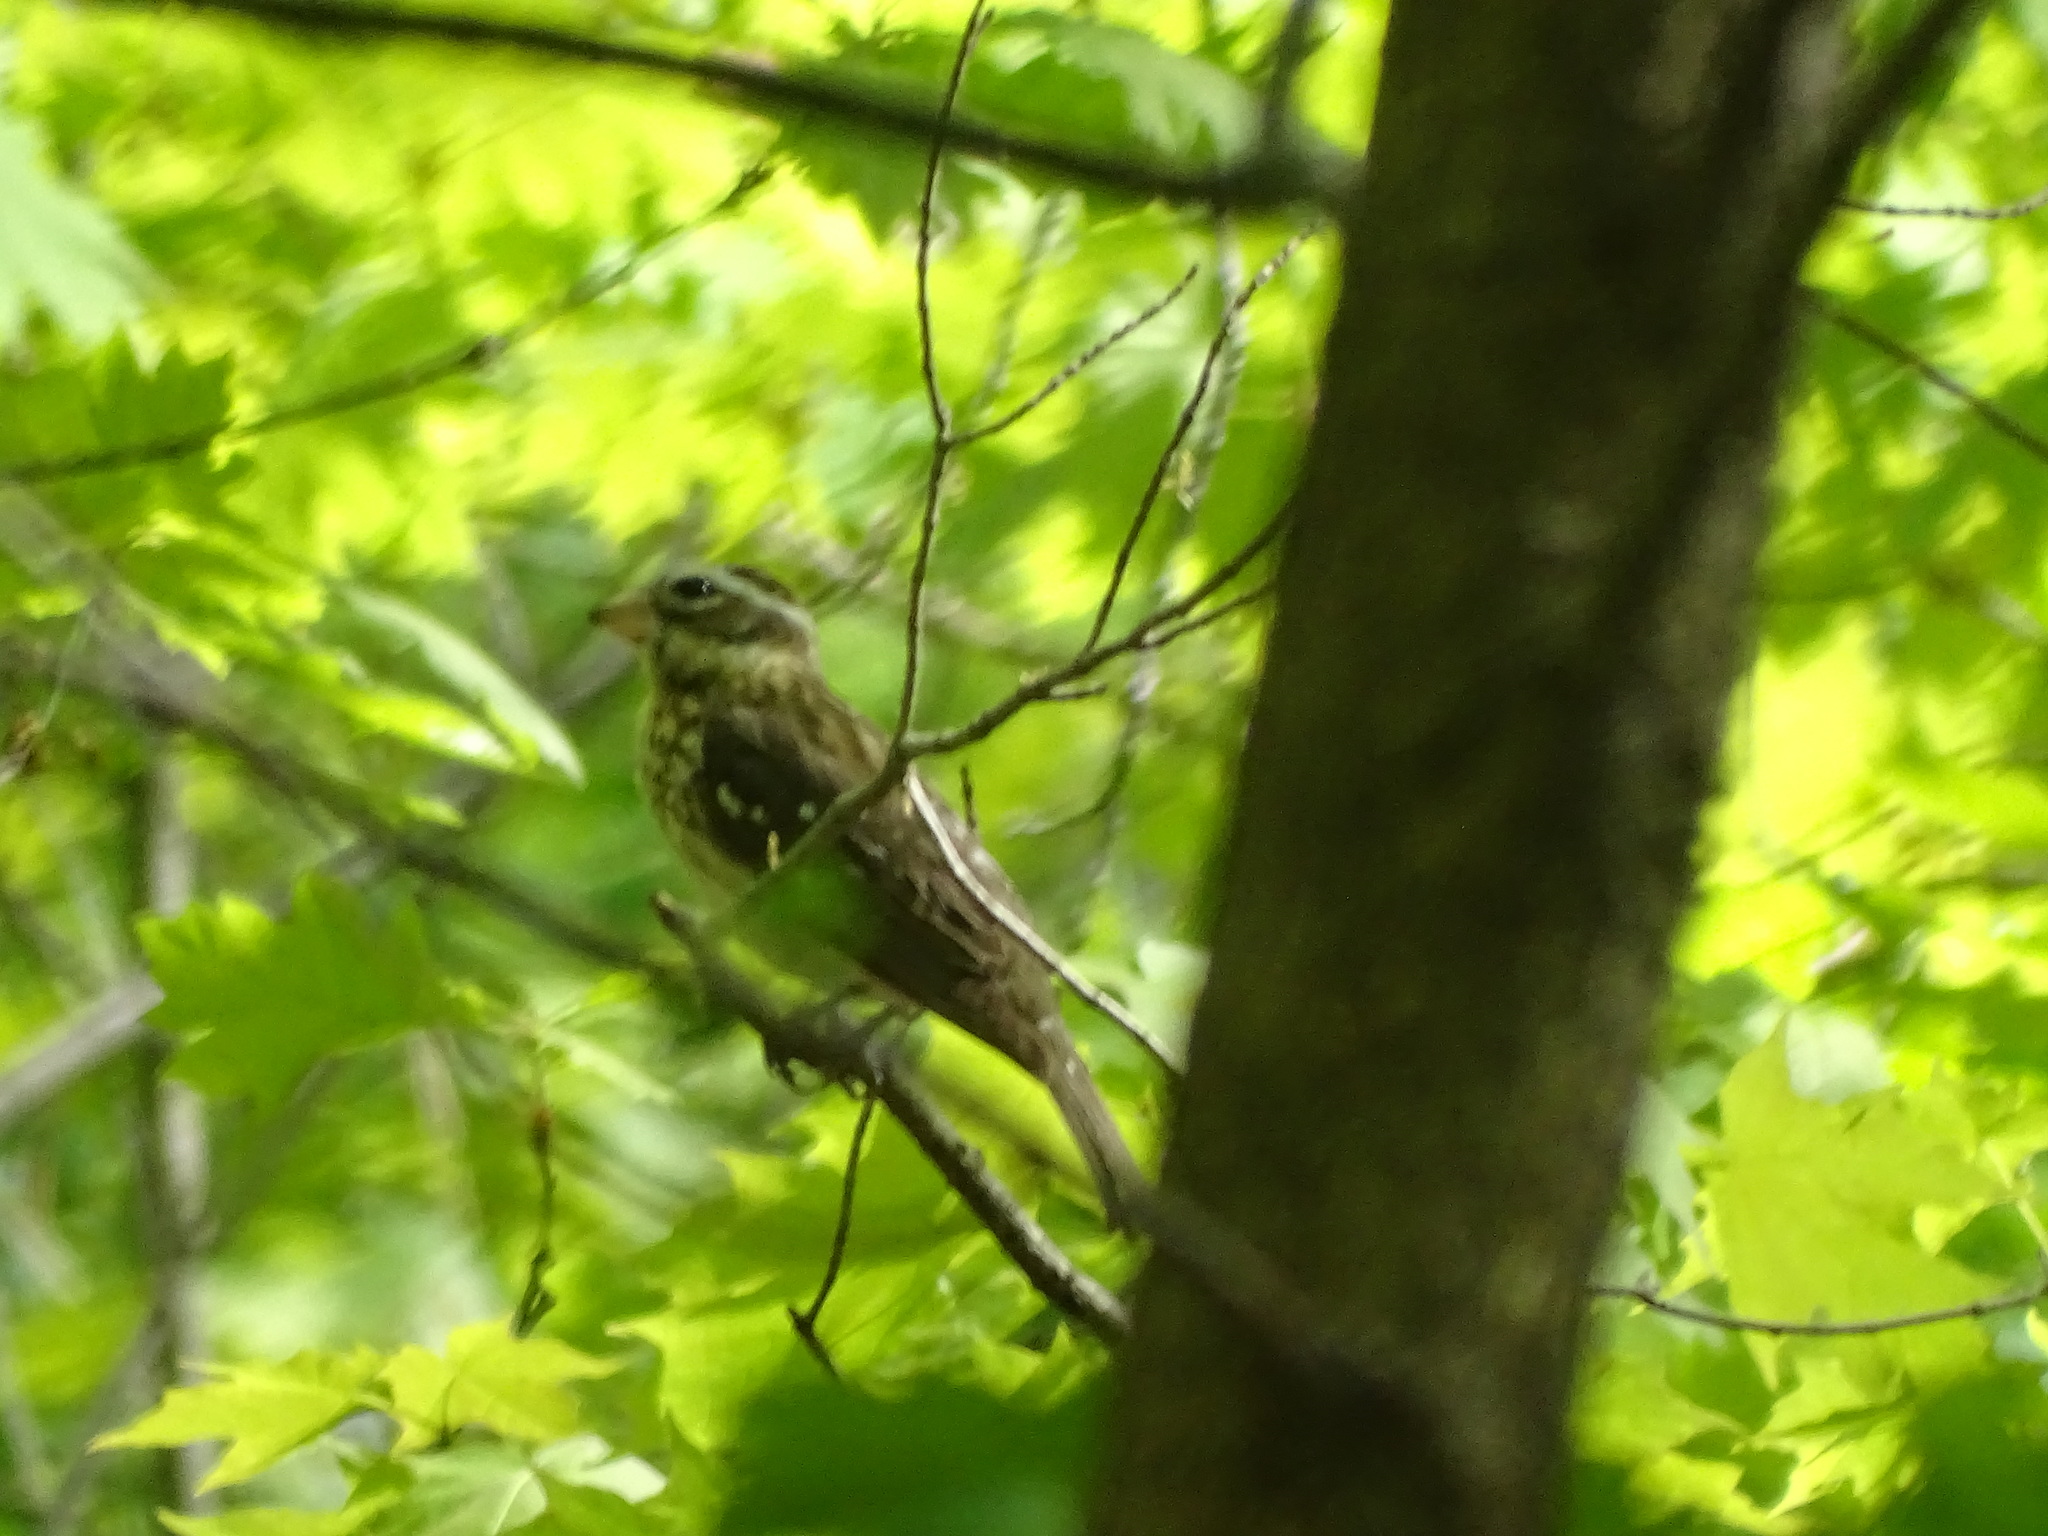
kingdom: Animalia
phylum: Chordata
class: Aves
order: Passeriformes
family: Cardinalidae
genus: Pheucticus
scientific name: Pheucticus ludovicianus
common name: Rose-breasted grosbeak
